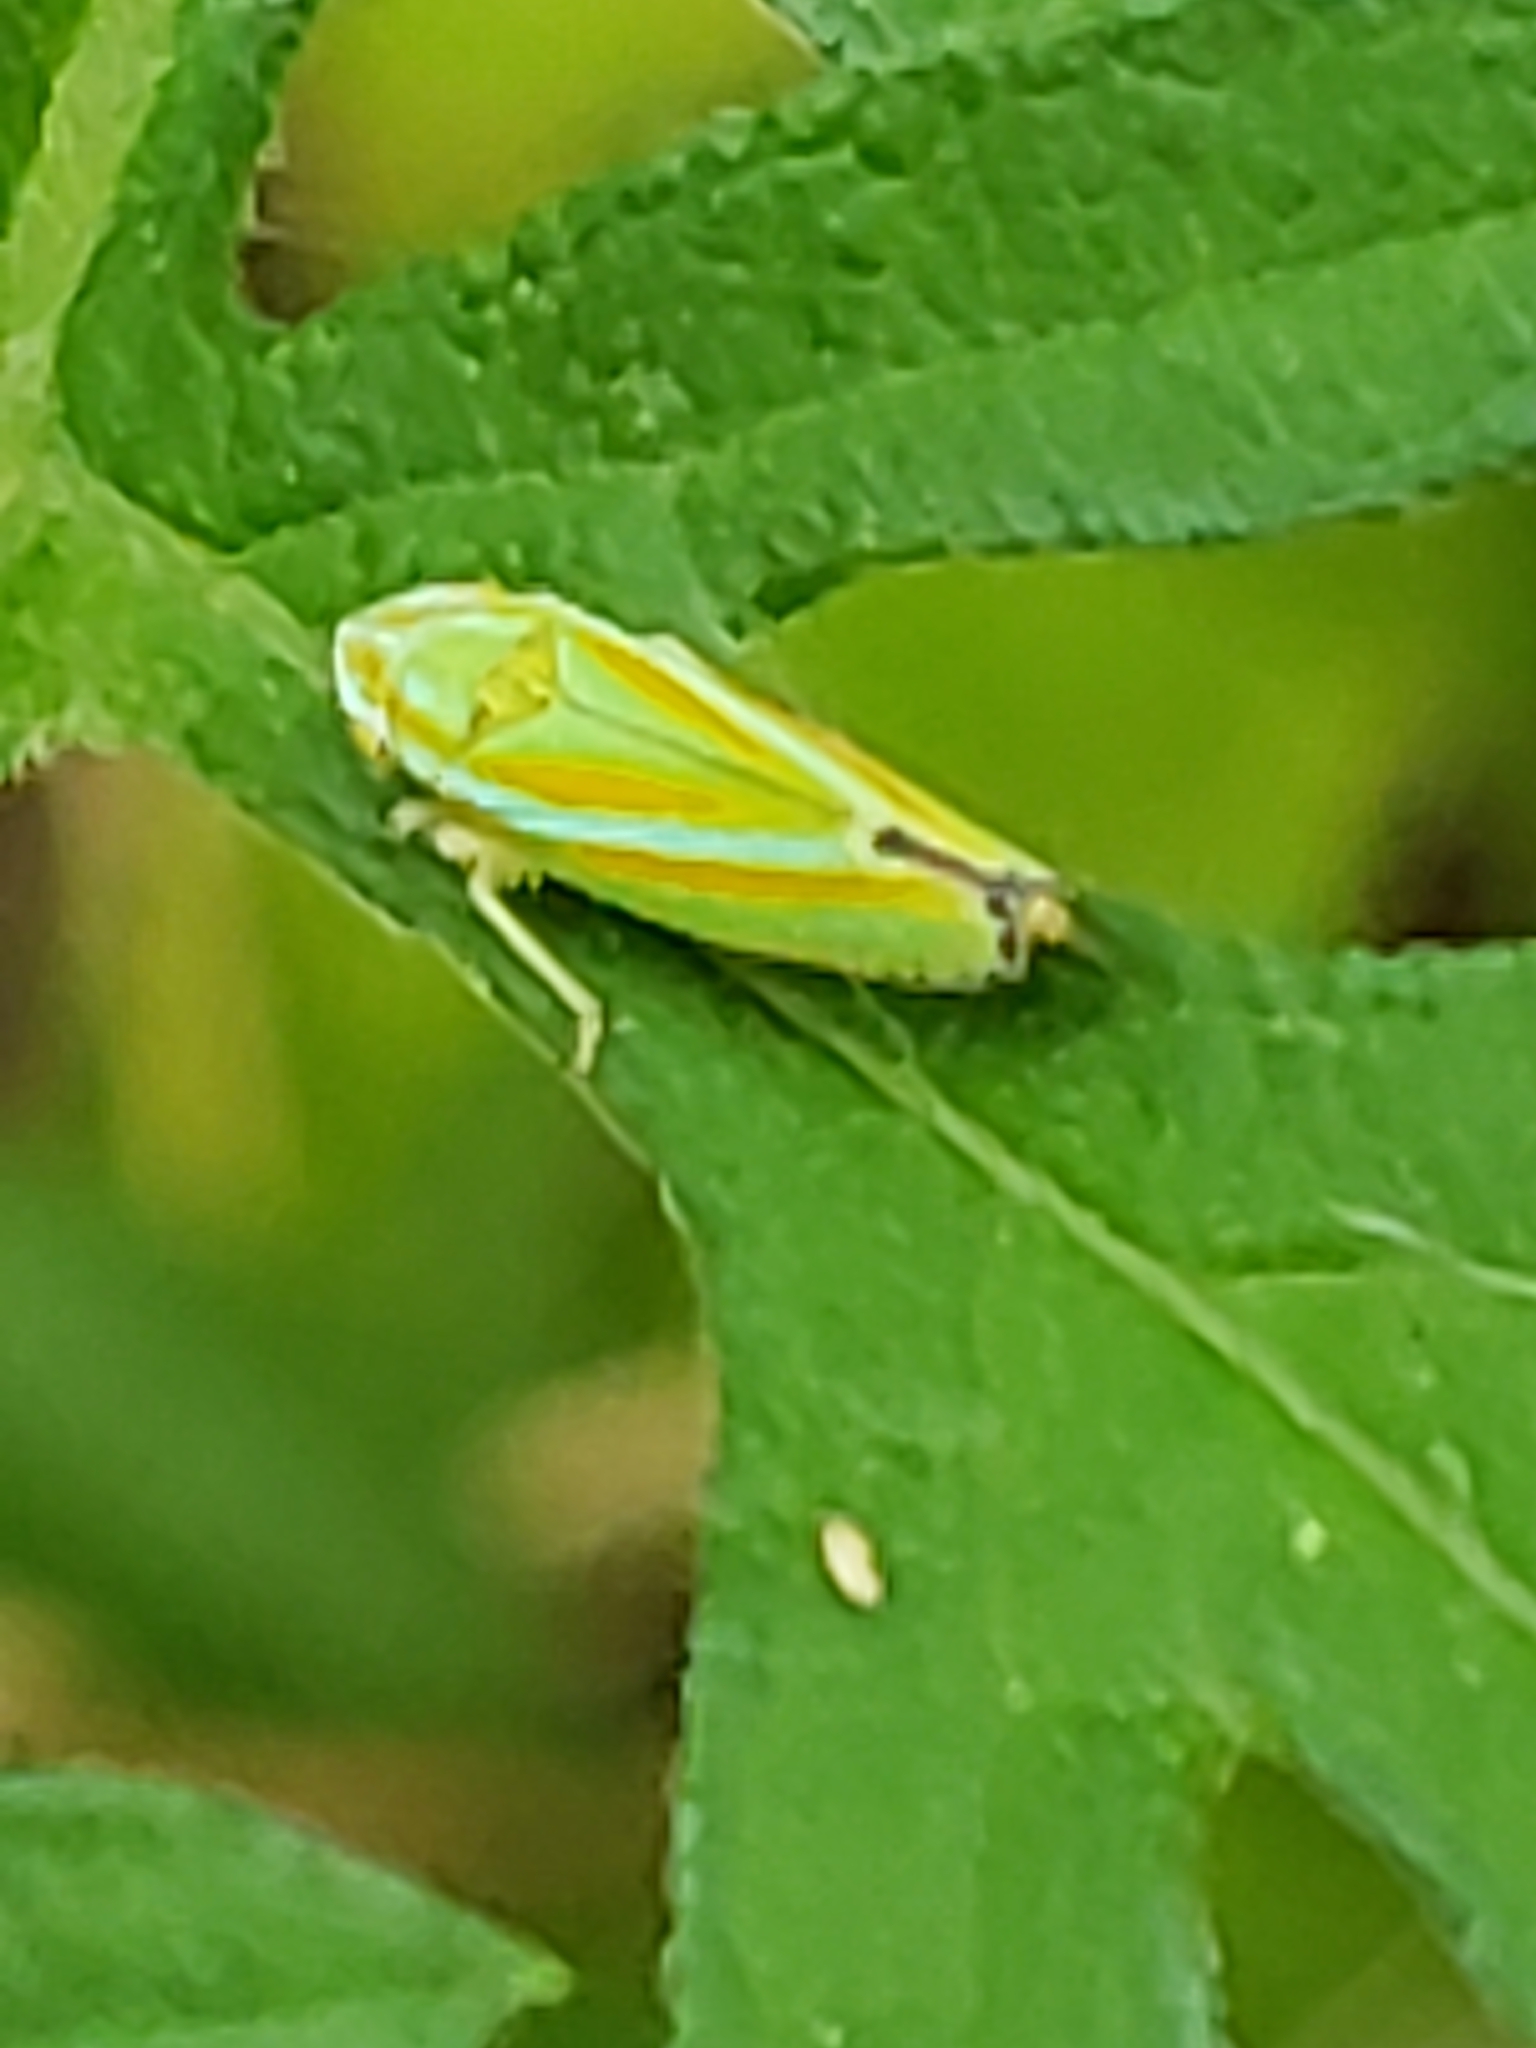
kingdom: Animalia
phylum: Arthropoda
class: Insecta
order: Hemiptera
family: Cicadellidae
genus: Graphocephala
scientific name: Graphocephala versuta
